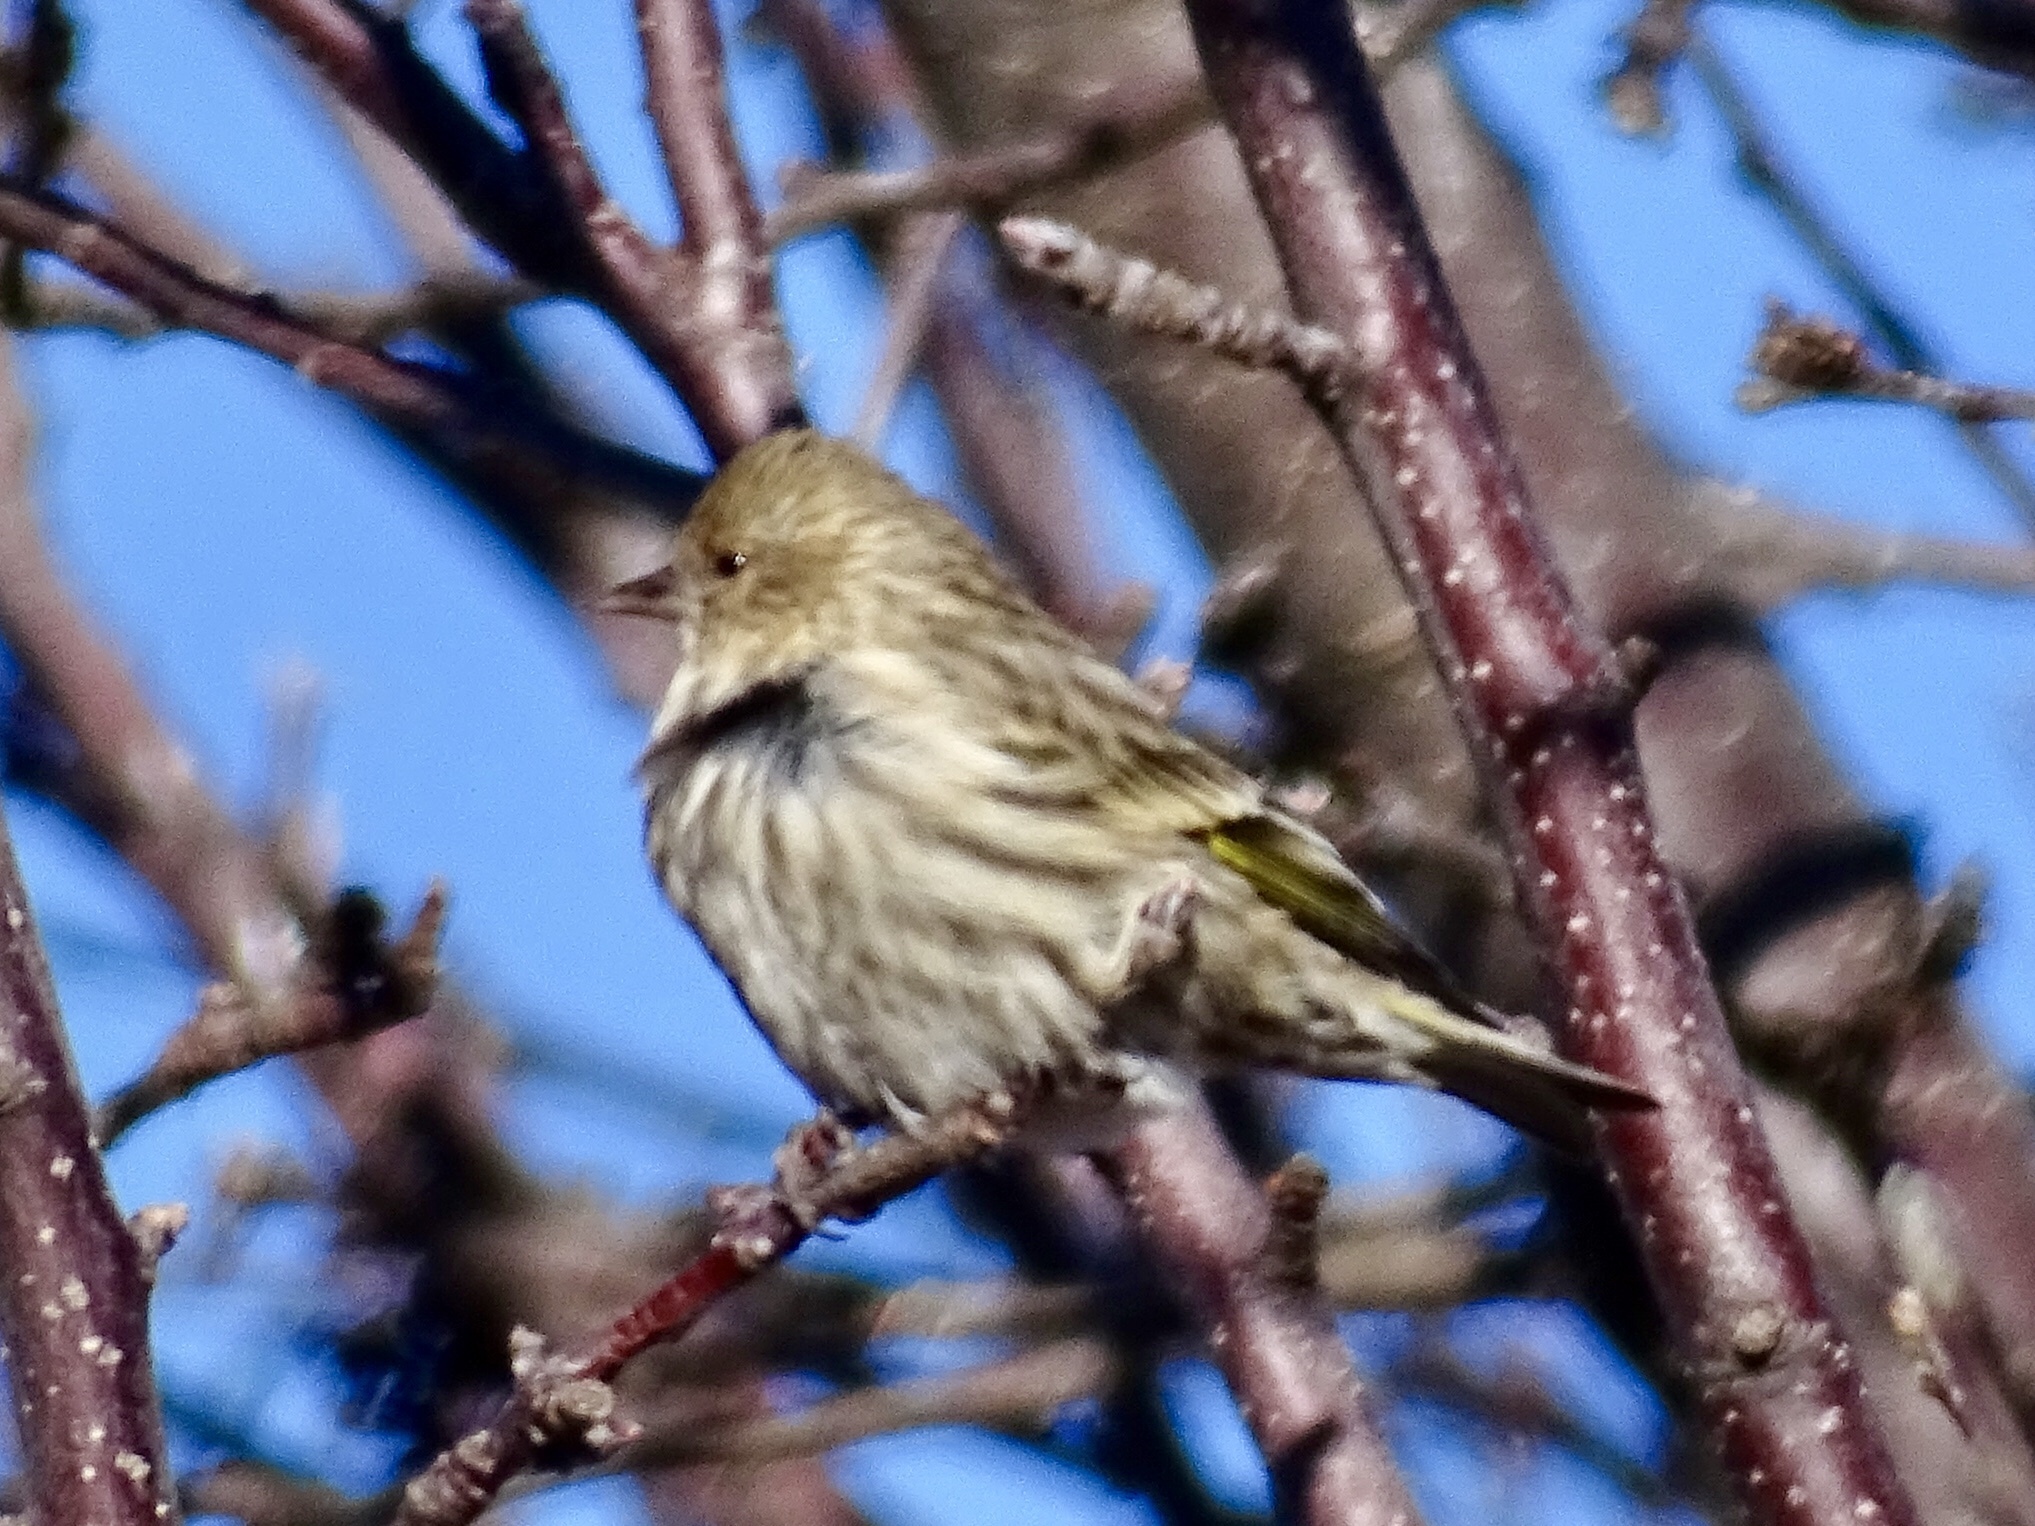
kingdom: Animalia
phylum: Chordata
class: Aves
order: Passeriformes
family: Fringillidae
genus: Spinus
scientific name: Spinus pinus
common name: Pine siskin
